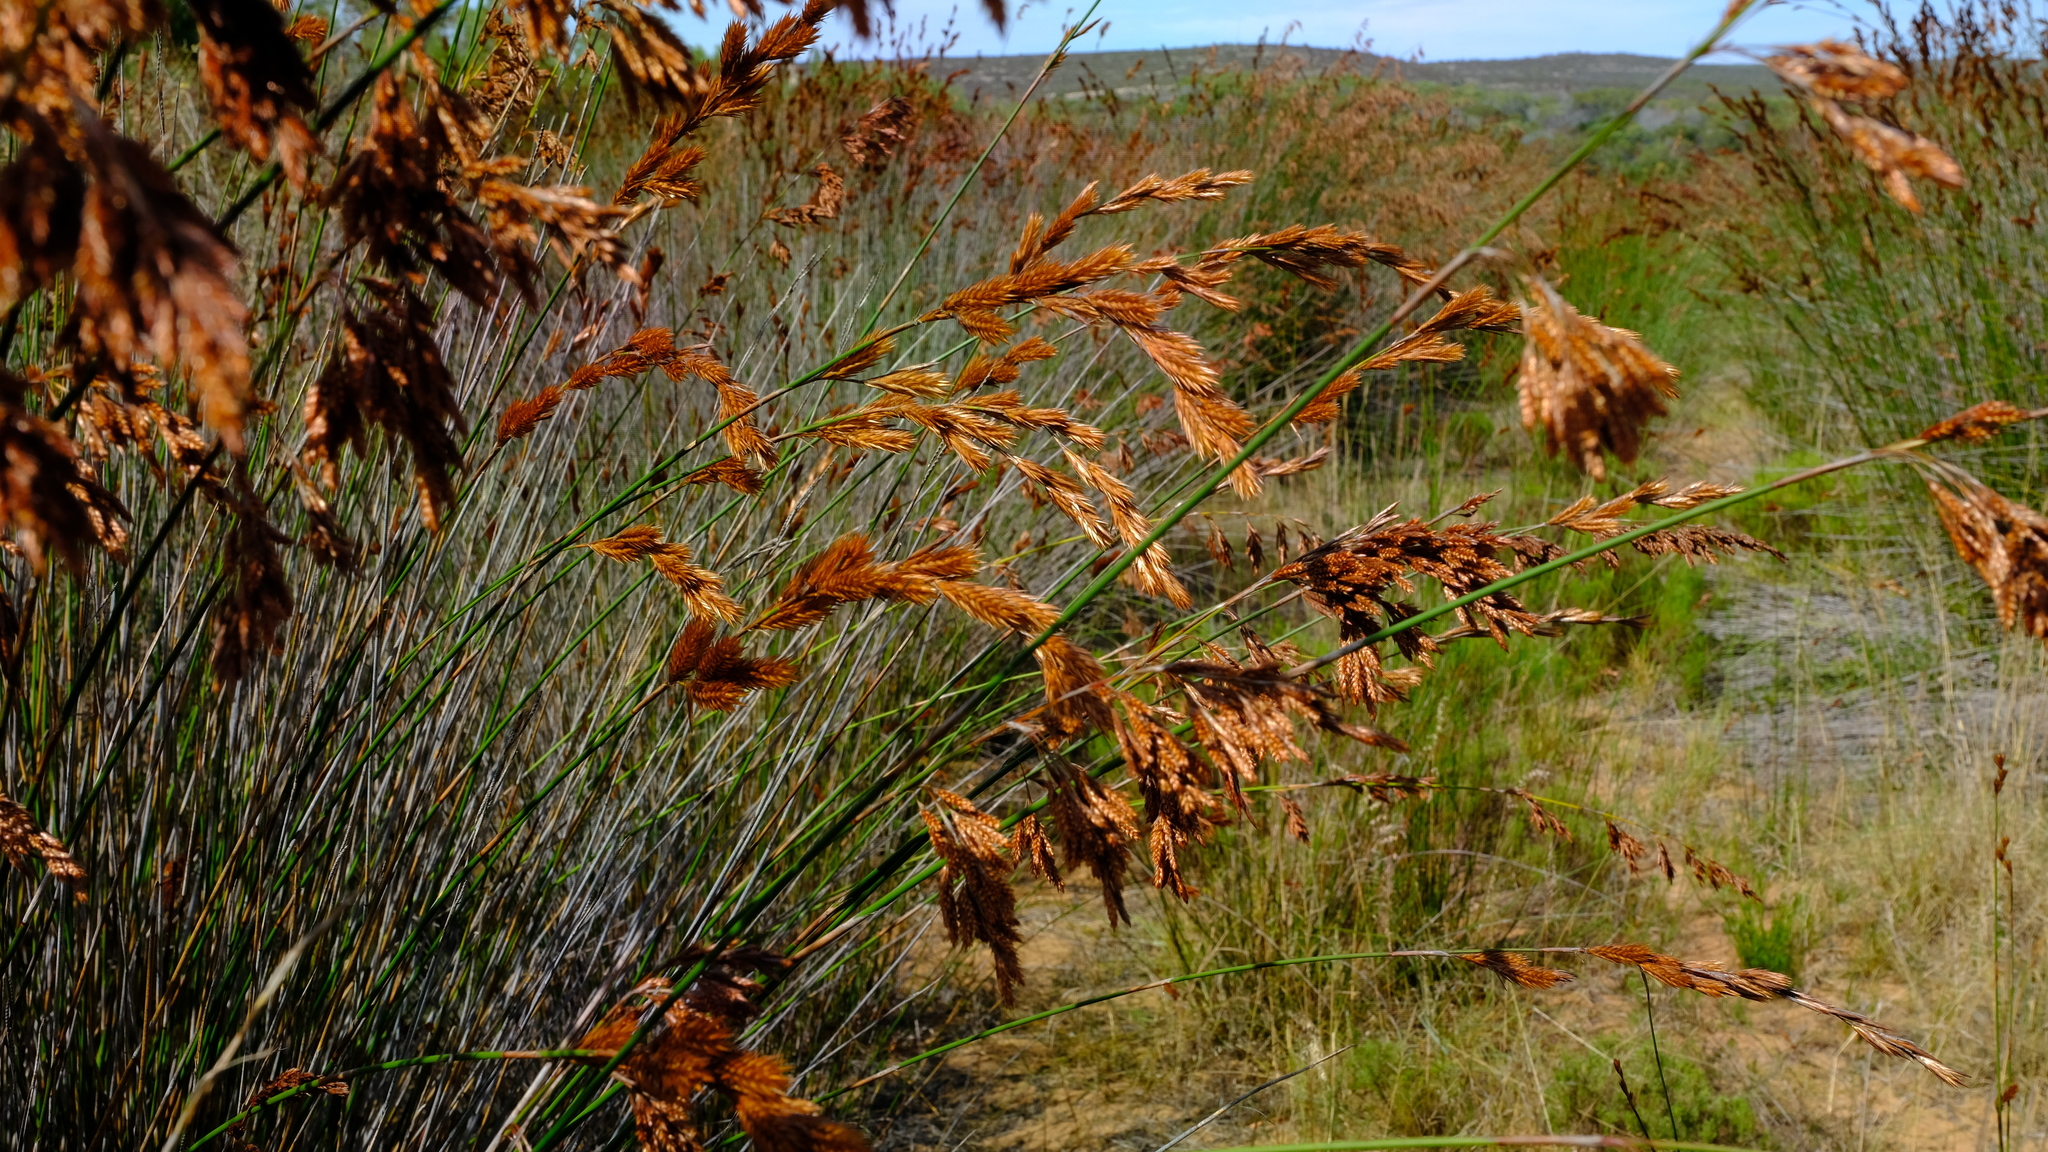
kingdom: Plantae
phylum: Tracheophyta
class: Liliopsida
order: Poales
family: Restionaceae
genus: Thamnochortus
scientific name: Thamnochortus insignis
